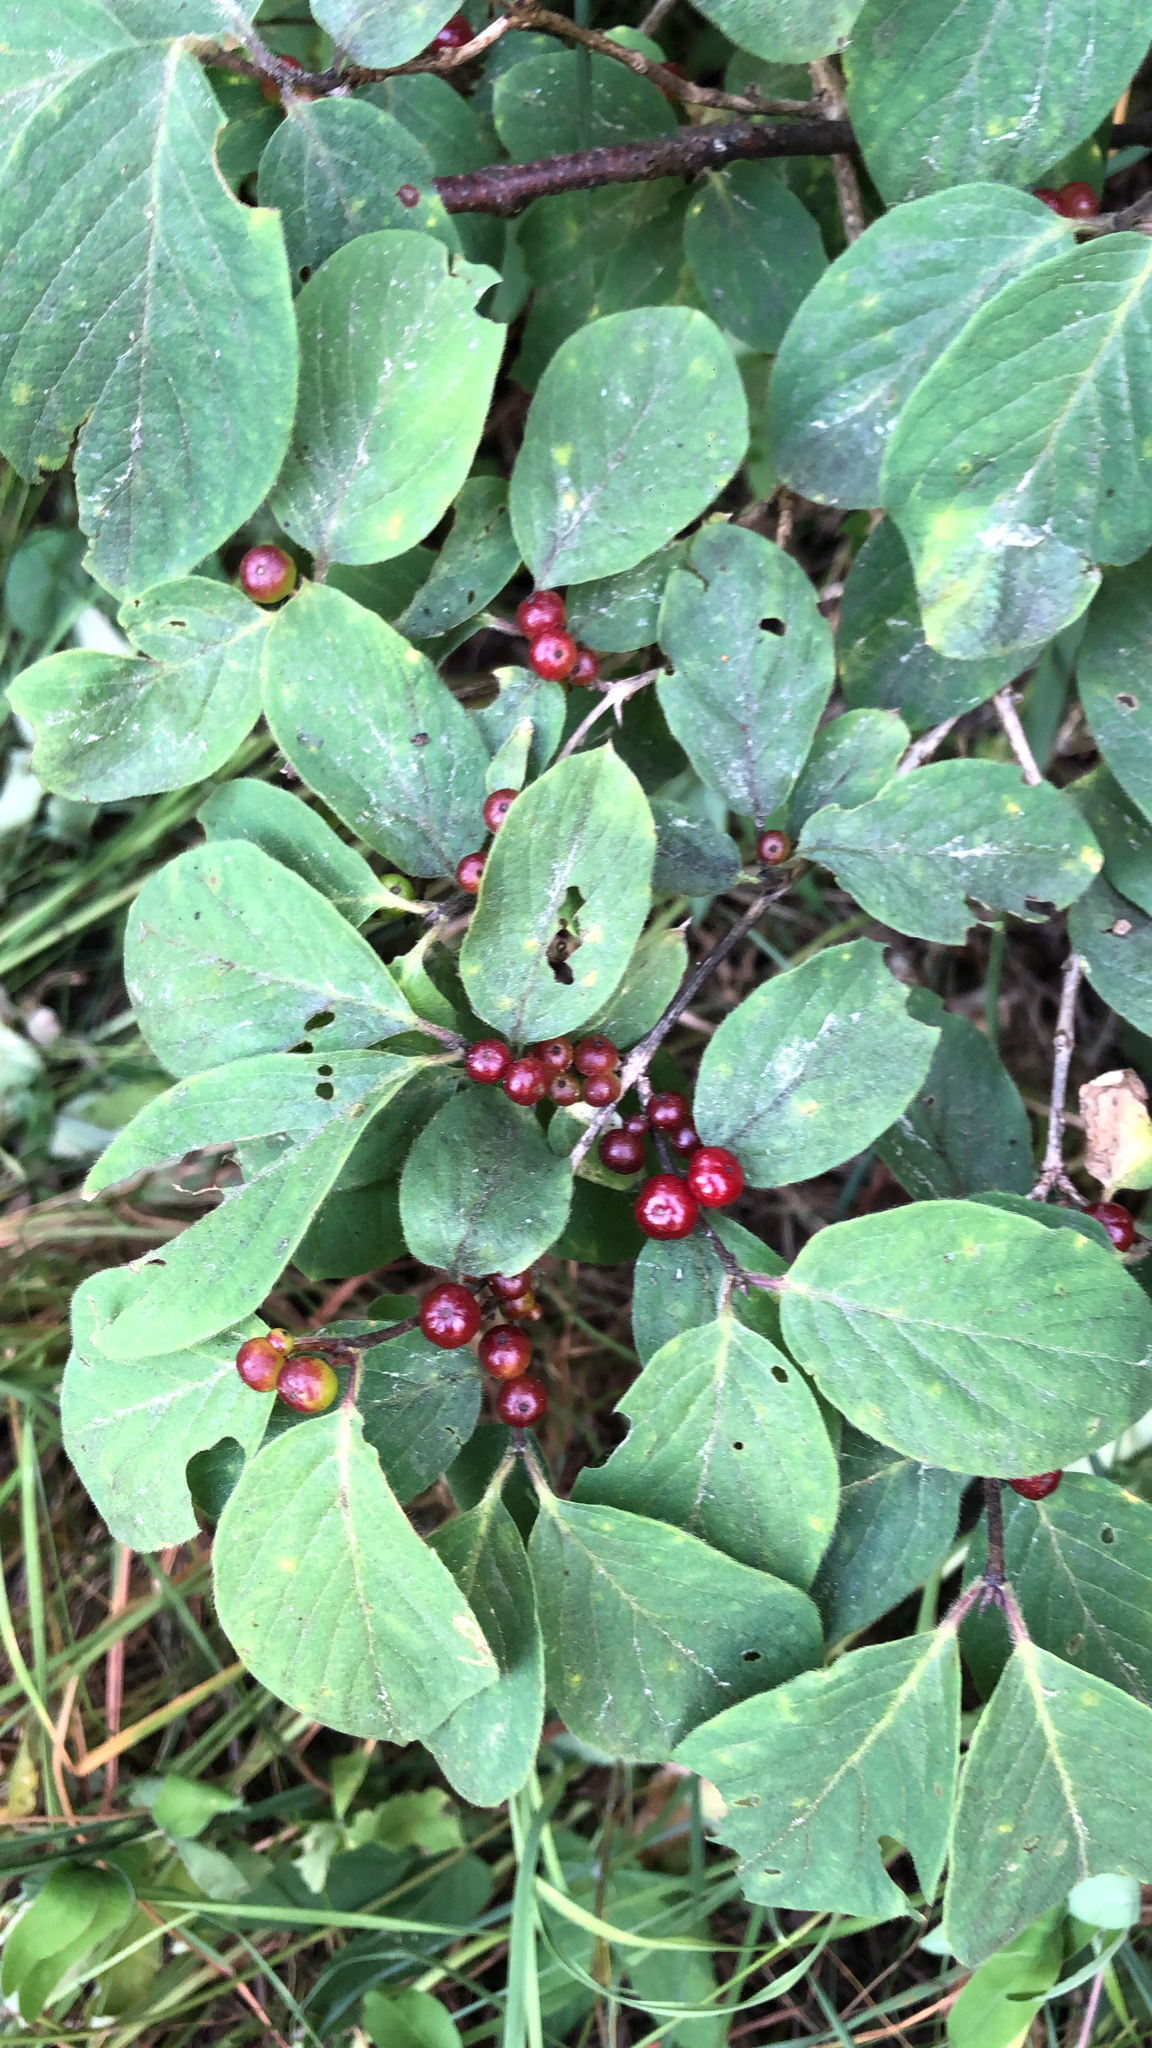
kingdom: Plantae
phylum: Tracheophyta
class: Magnoliopsida
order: Dipsacales
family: Caprifoliaceae
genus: Lonicera
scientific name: Lonicera xylosteum
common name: Fly honeysuckle
